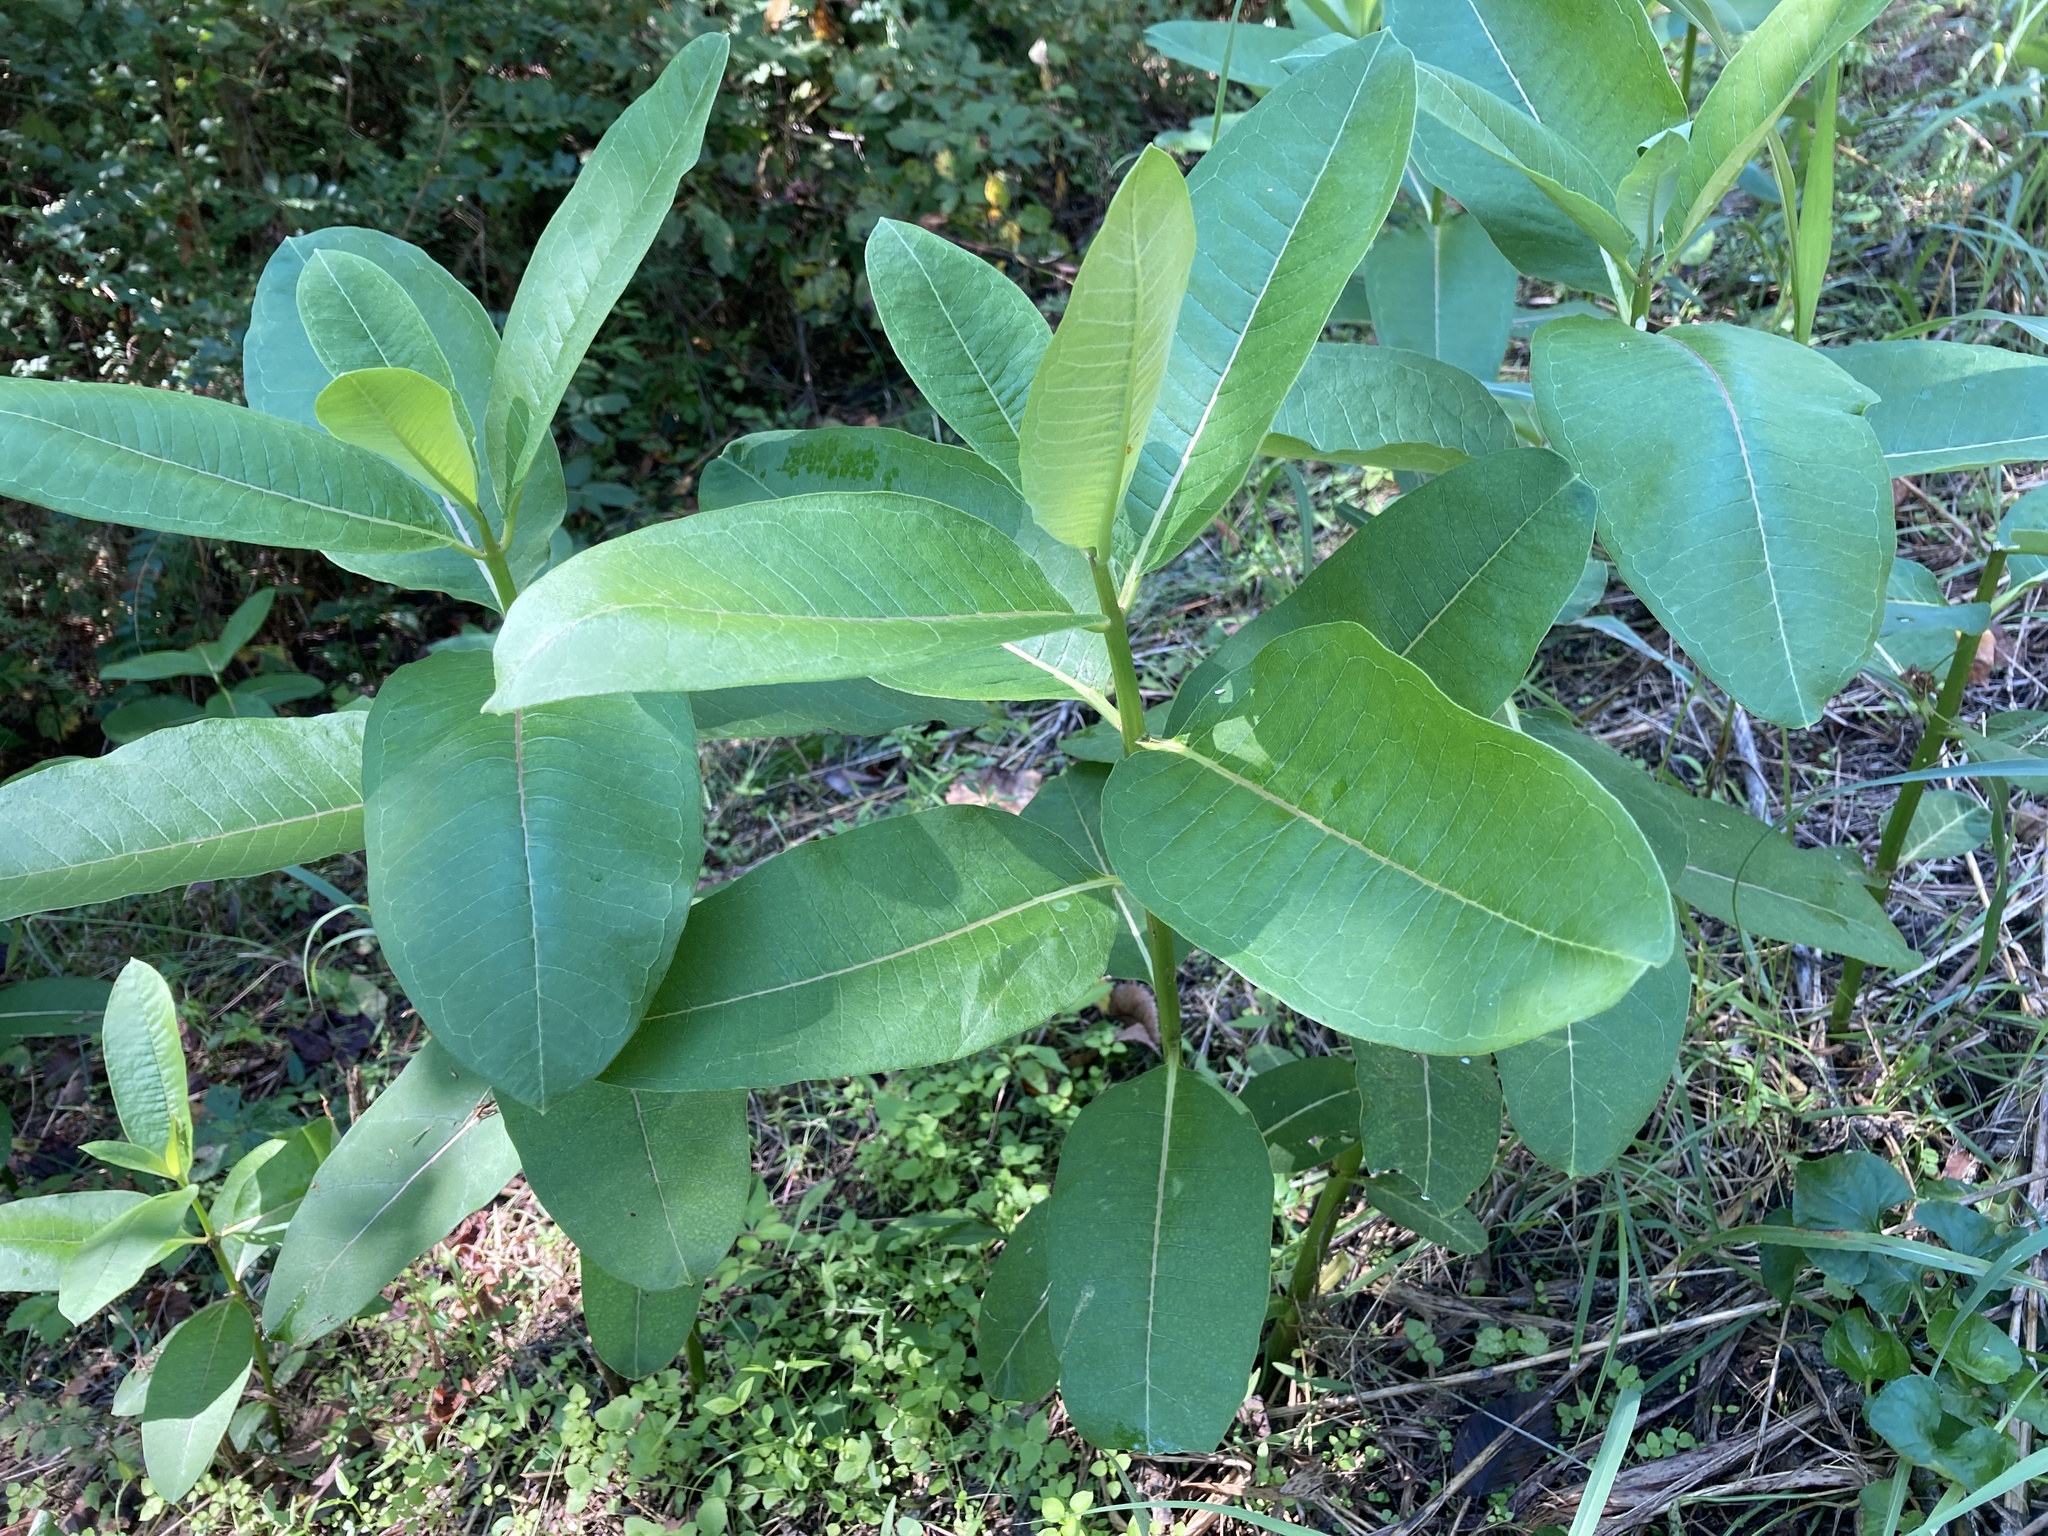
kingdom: Plantae
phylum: Tracheophyta
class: Magnoliopsida
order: Gentianales
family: Apocynaceae
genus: Asclepias
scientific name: Asclepias syriaca
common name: Common milkweed
